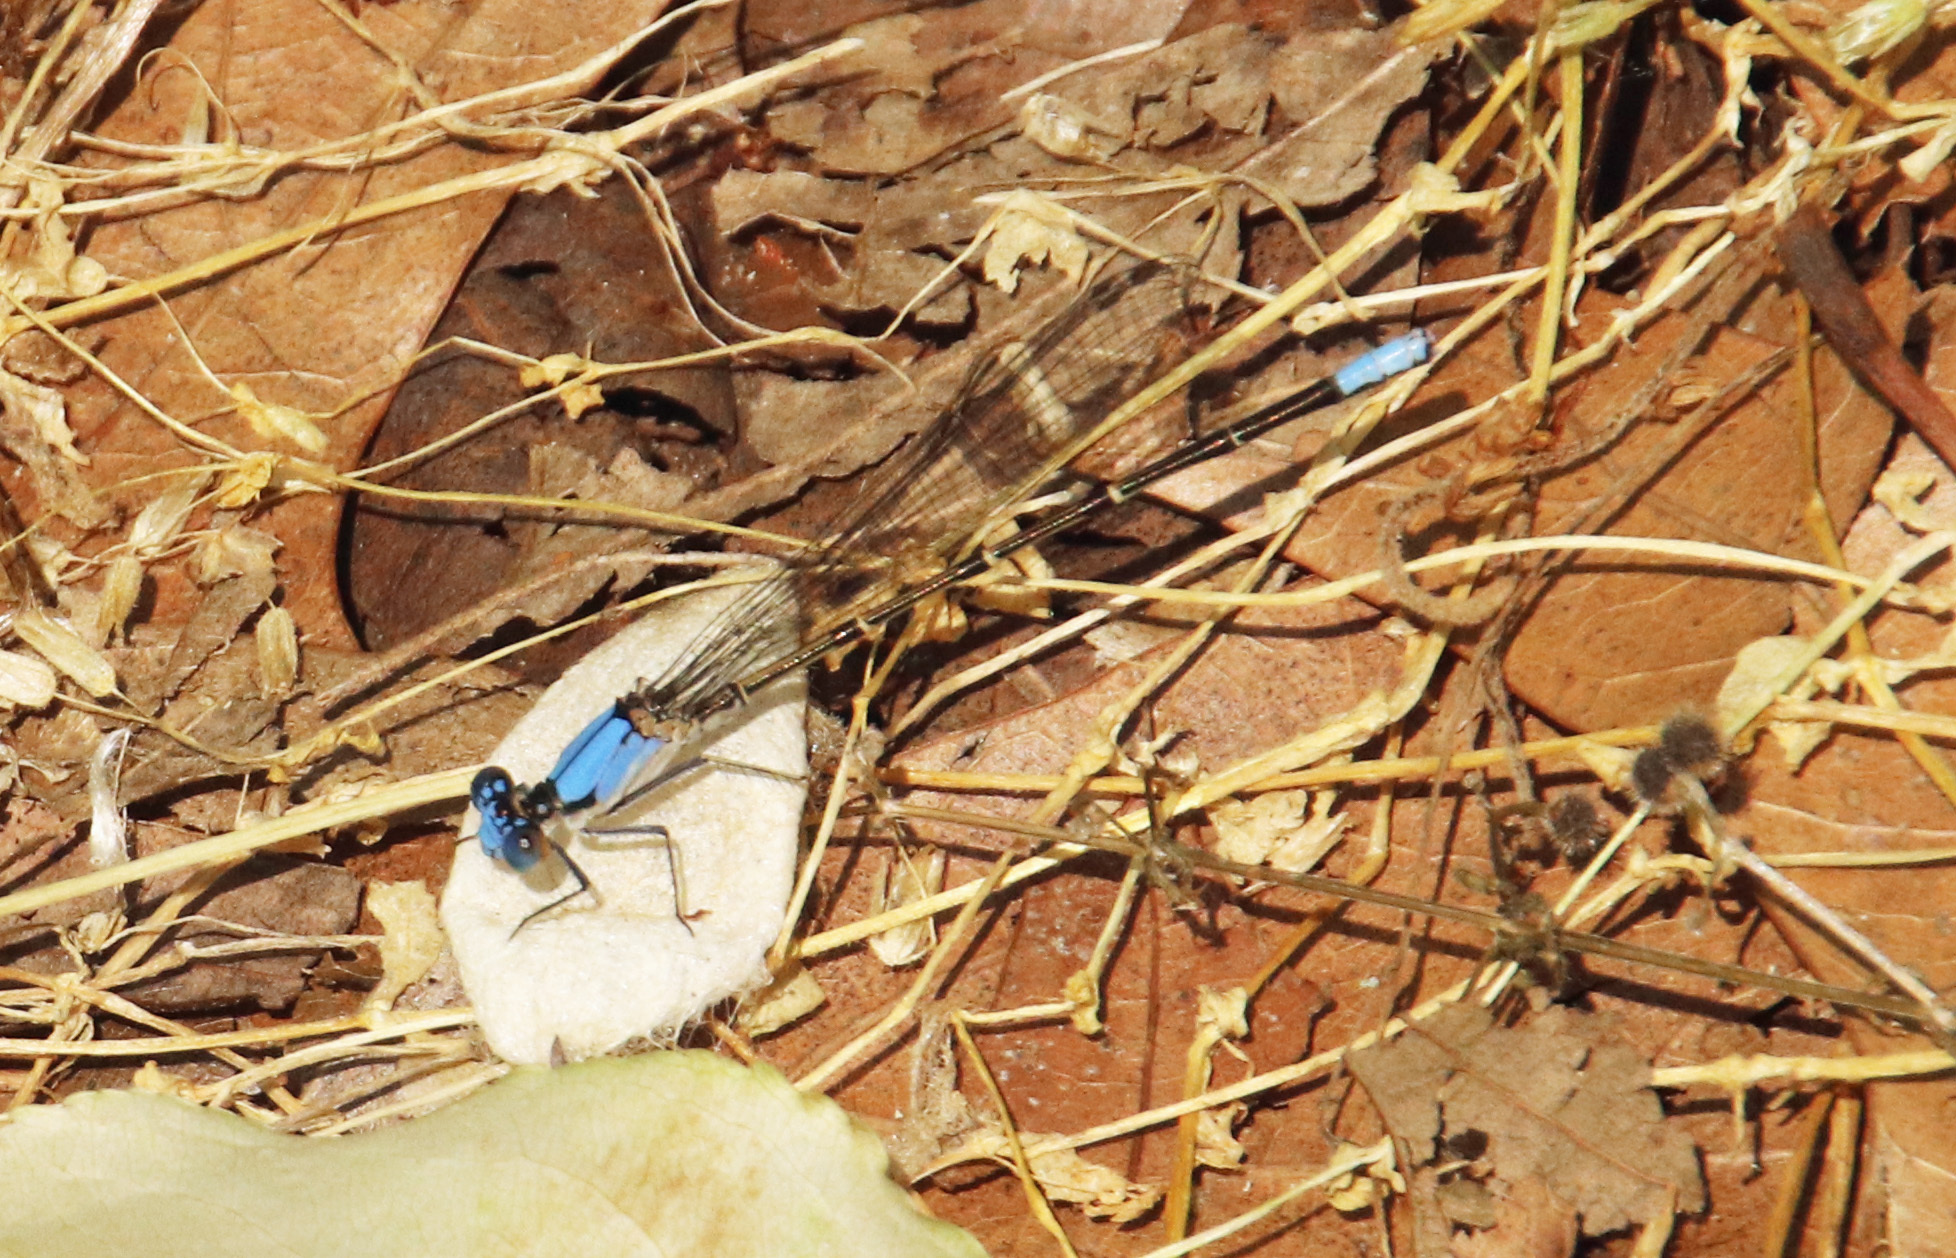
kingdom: Animalia
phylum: Arthropoda
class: Insecta
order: Odonata
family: Coenagrionidae
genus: Argia
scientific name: Argia apicalis
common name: Blue-fronted dancer
